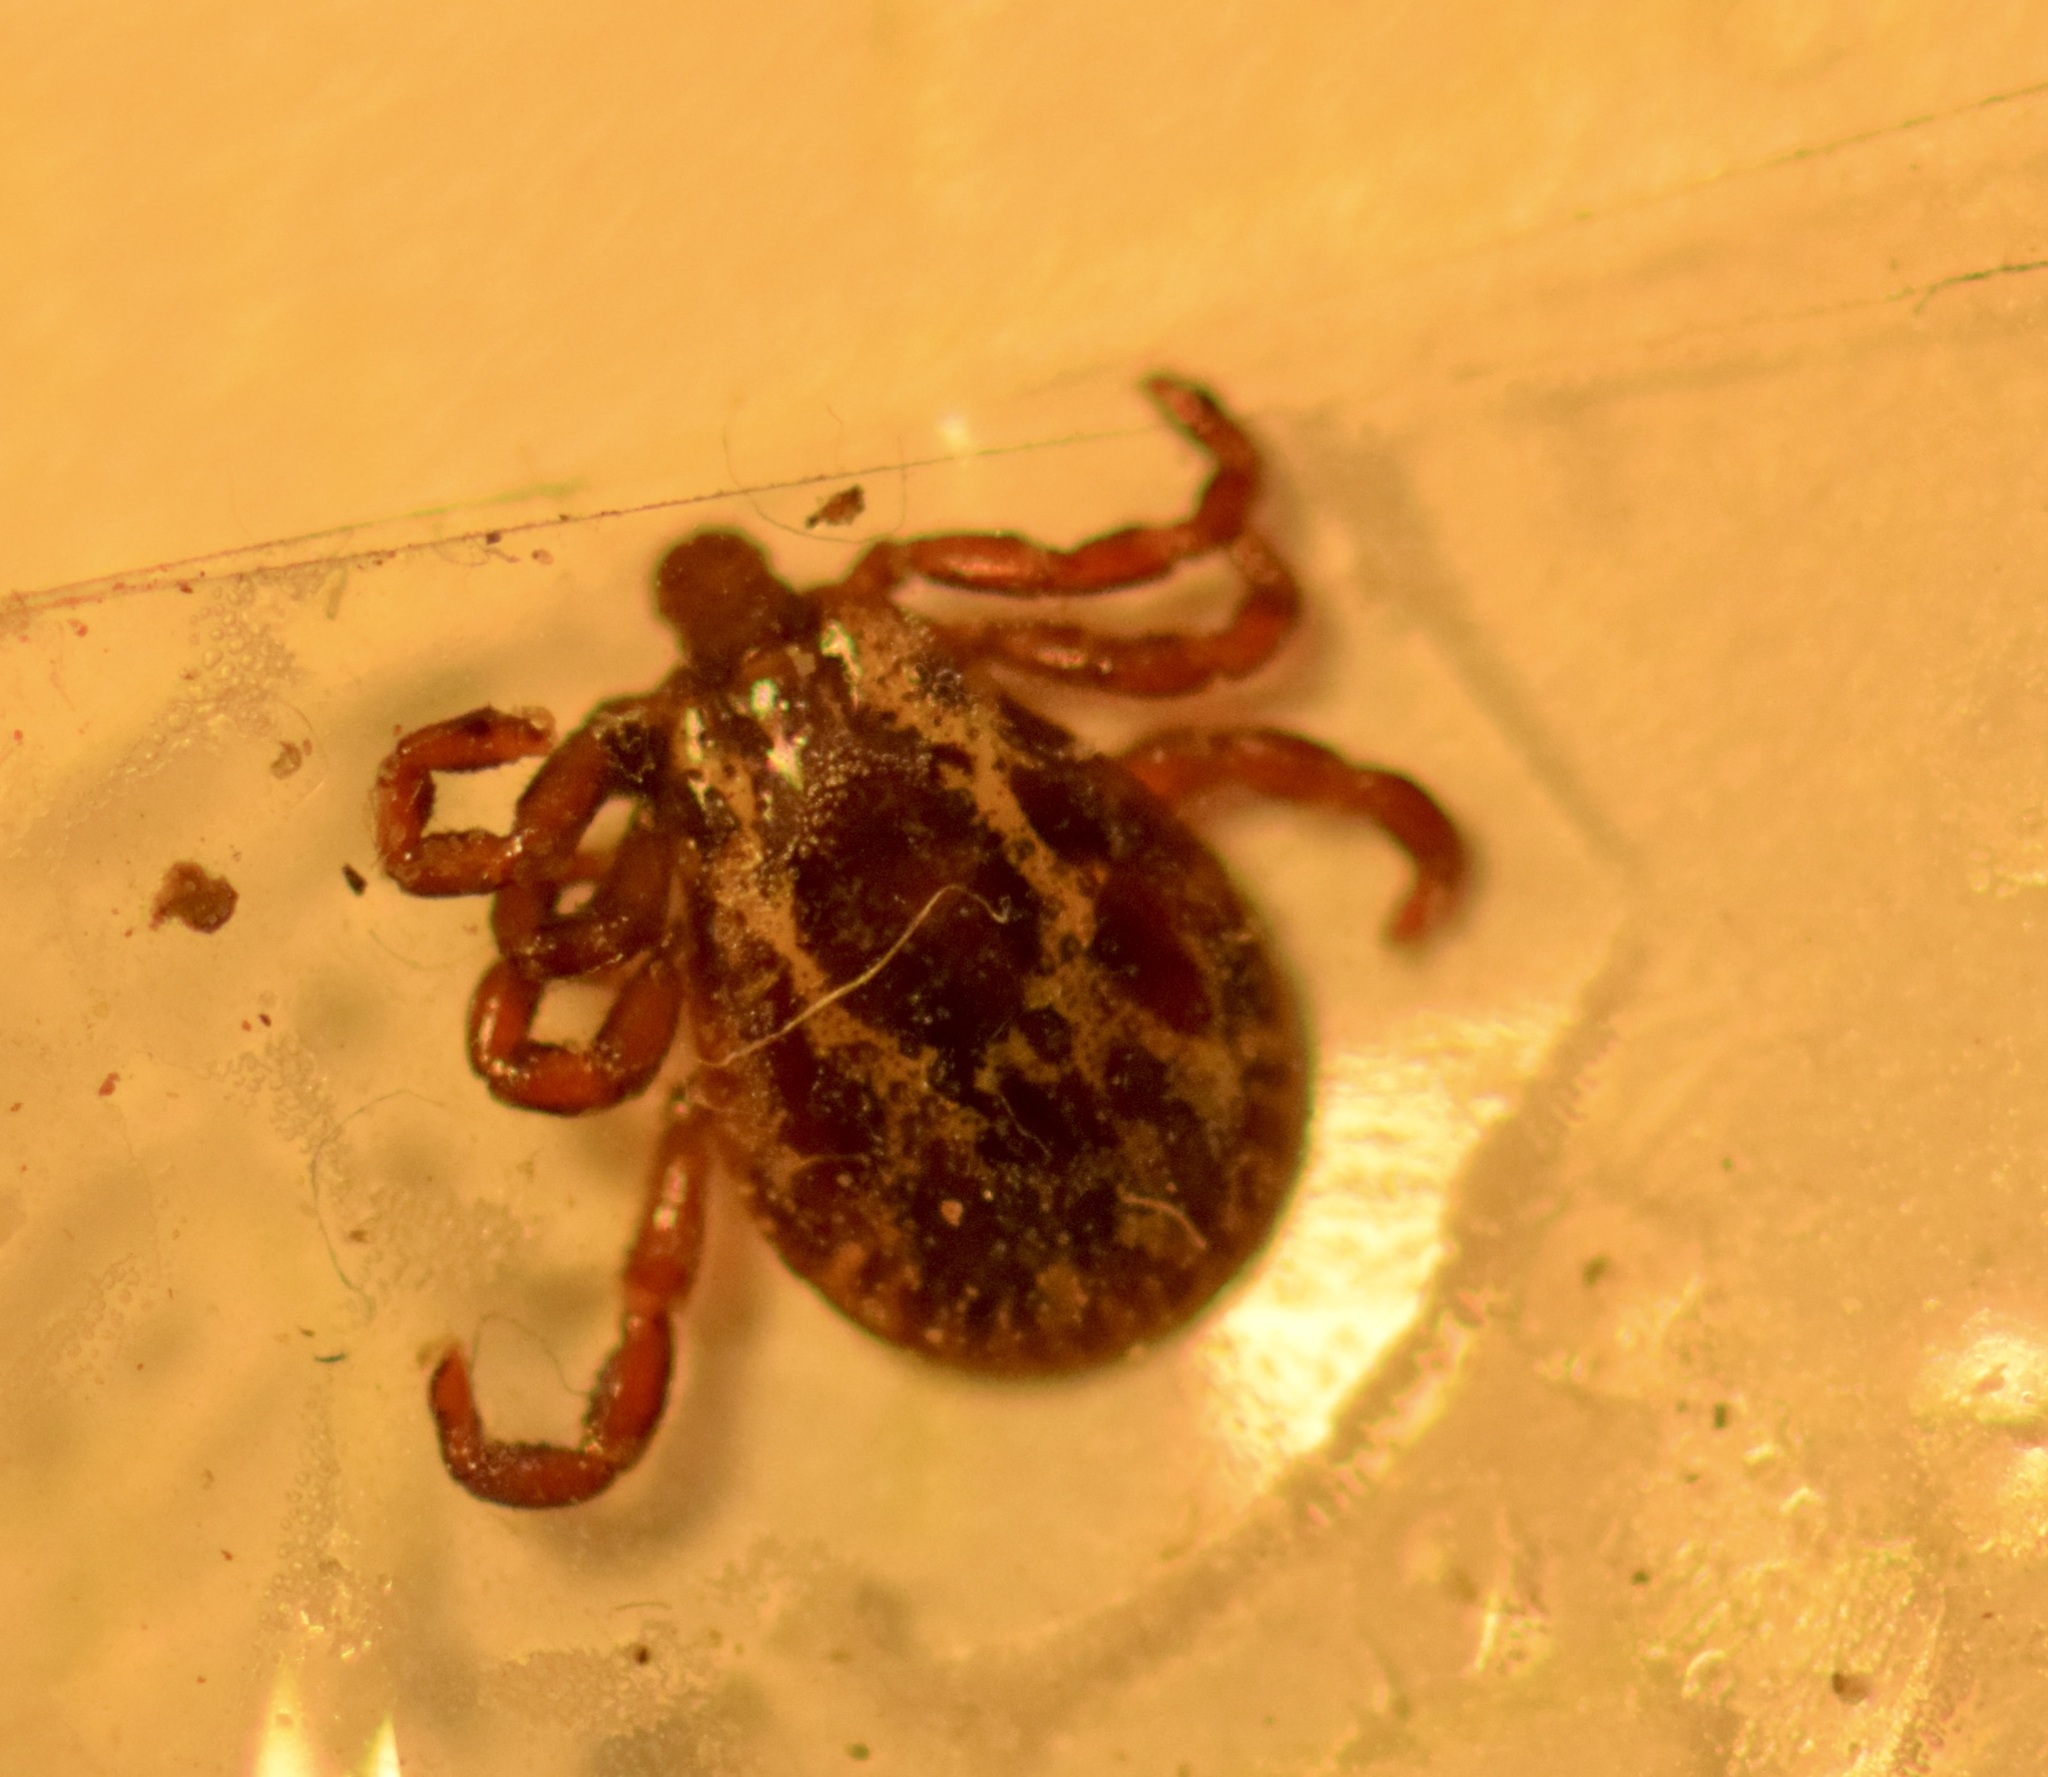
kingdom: Animalia
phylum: Arthropoda
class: Arachnida
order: Ixodida
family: Ixodidae
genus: Dermacentor
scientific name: Dermacentor variabilis
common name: American dog tick
